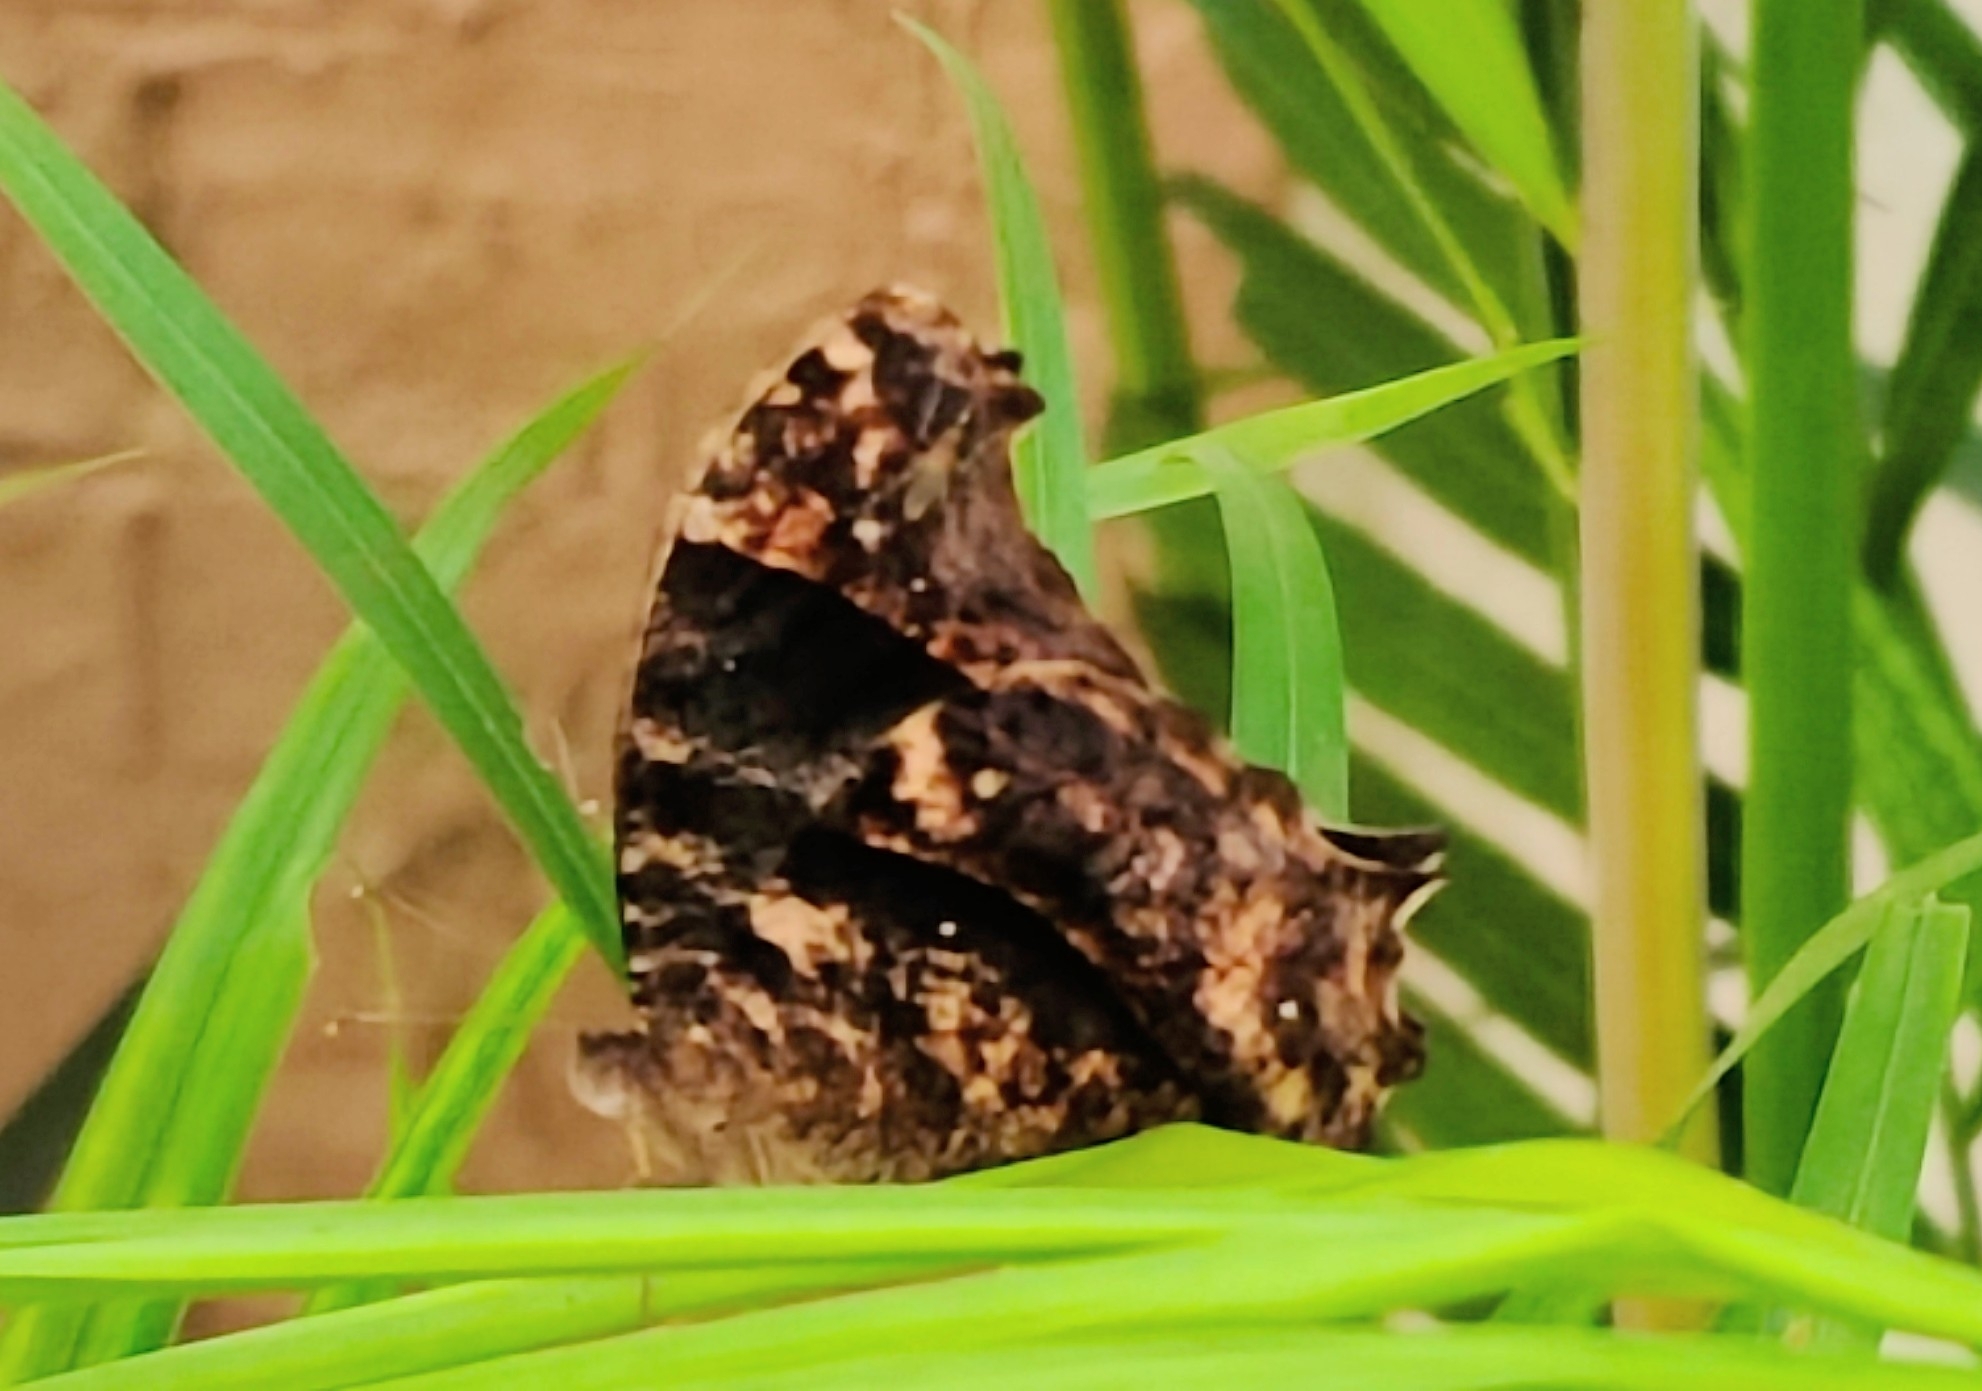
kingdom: Animalia
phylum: Arthropoda
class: Insecta
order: Lepidoptera
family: Nymphalidae
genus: Melanitis
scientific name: Melanitis leda
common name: Twilight brown
